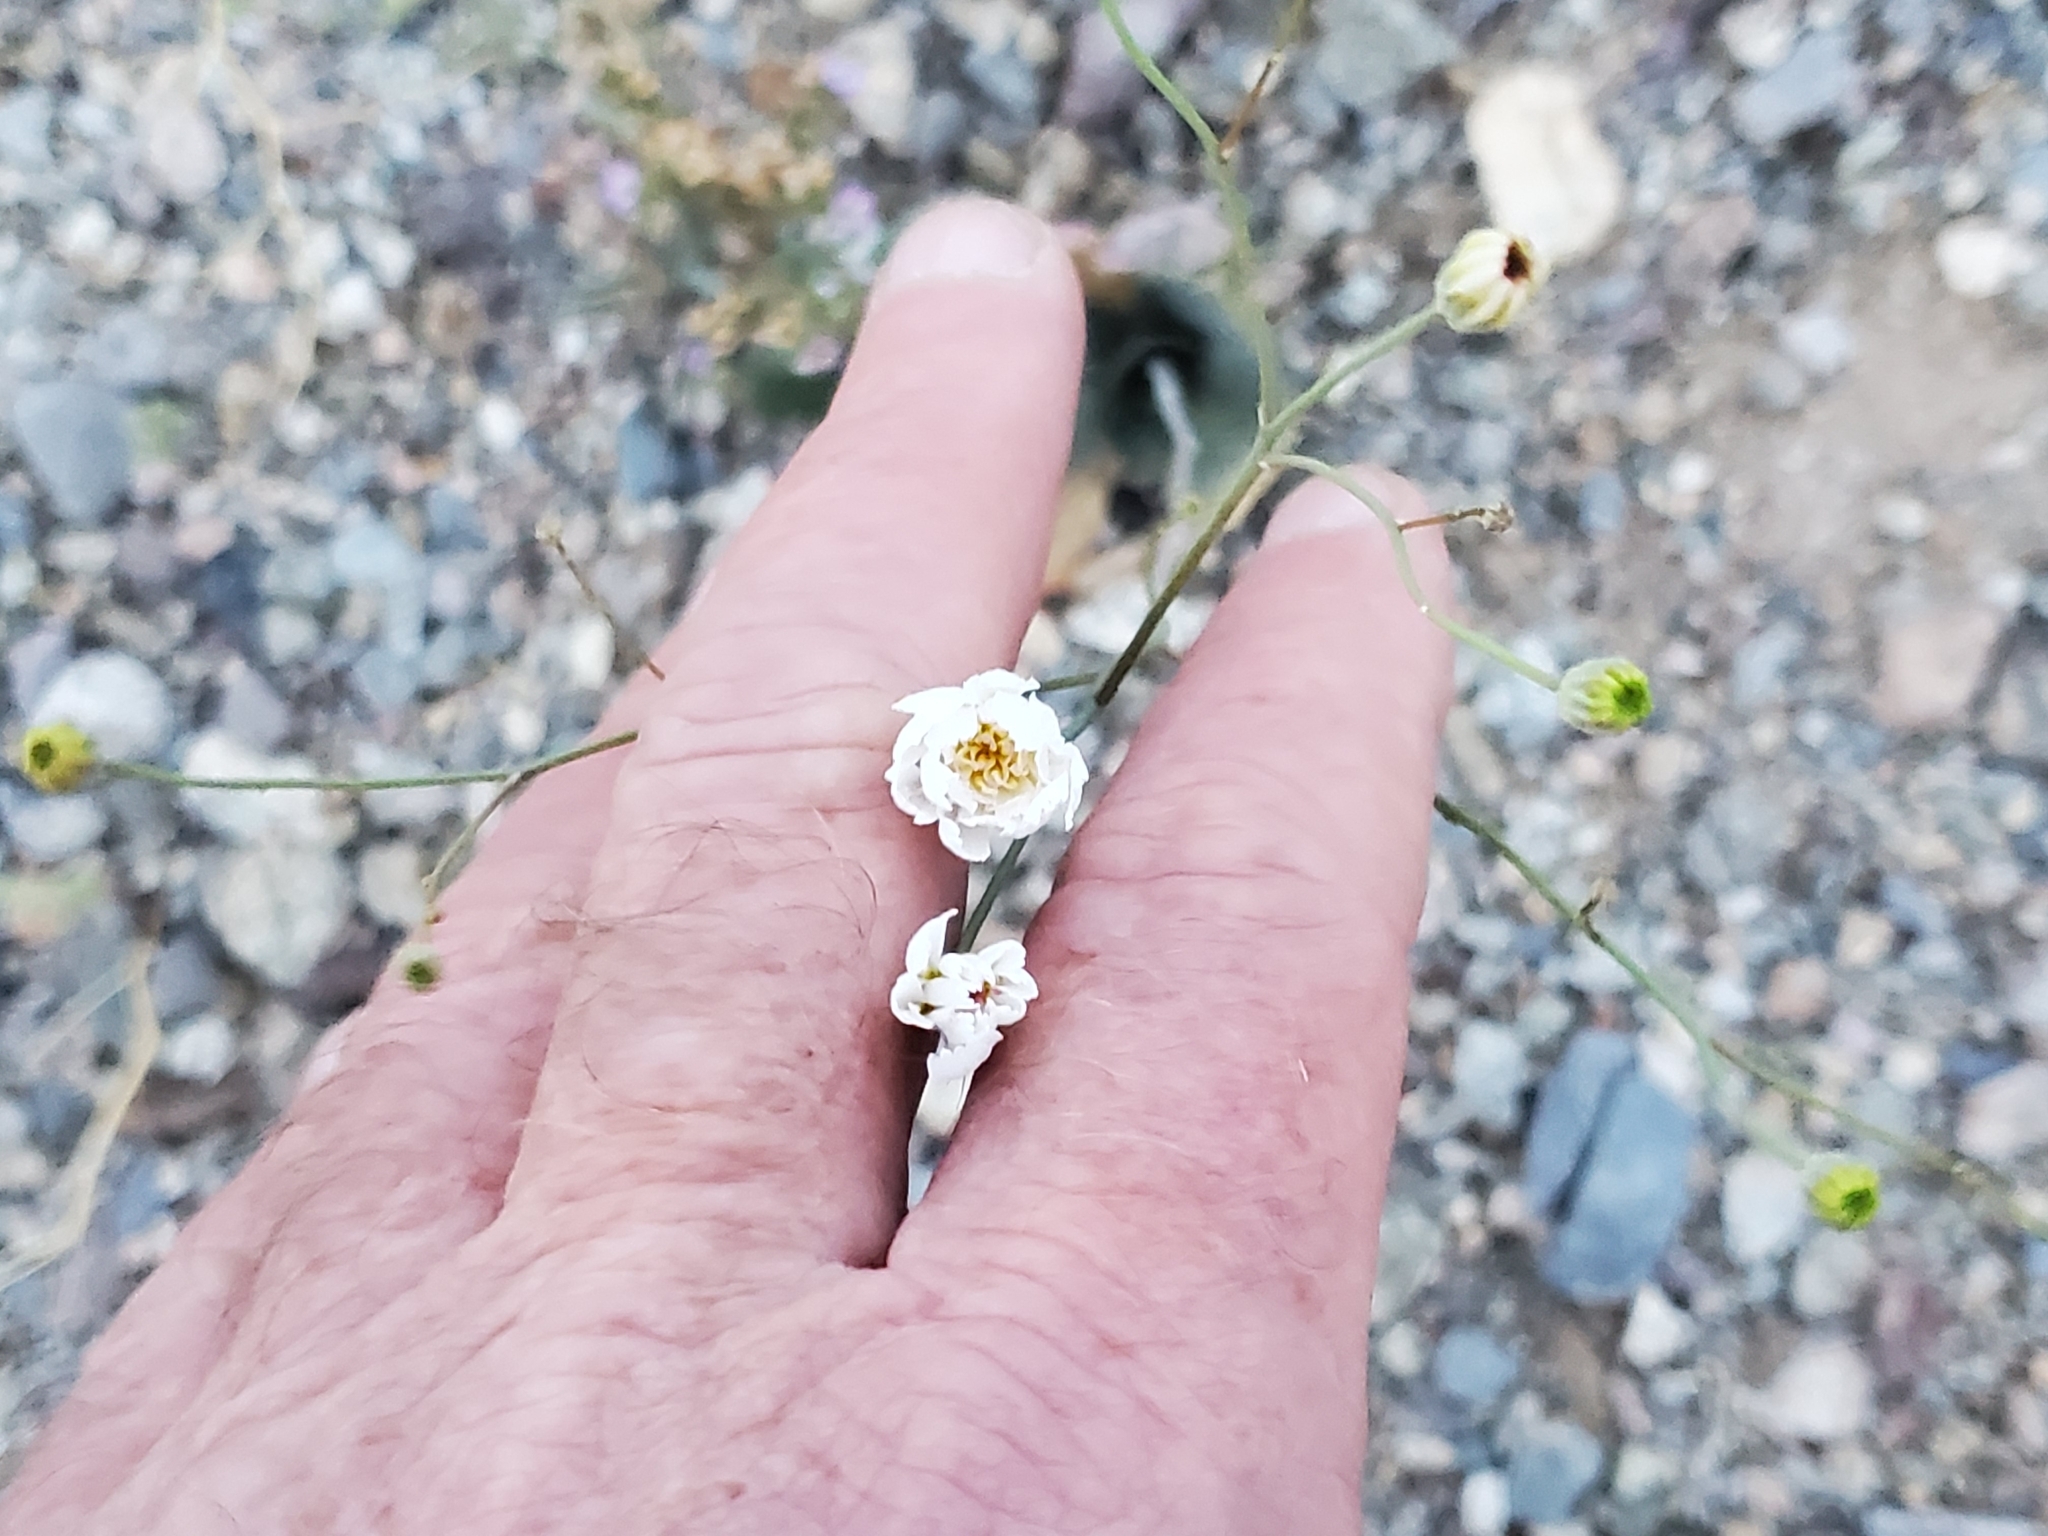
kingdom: Plantae
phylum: Tracheophyta
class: Magnoliopsida
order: Asterales
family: Asteraceae
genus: Atrichoseris
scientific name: Atrichoseris platyphylla
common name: Tobaccoweed
